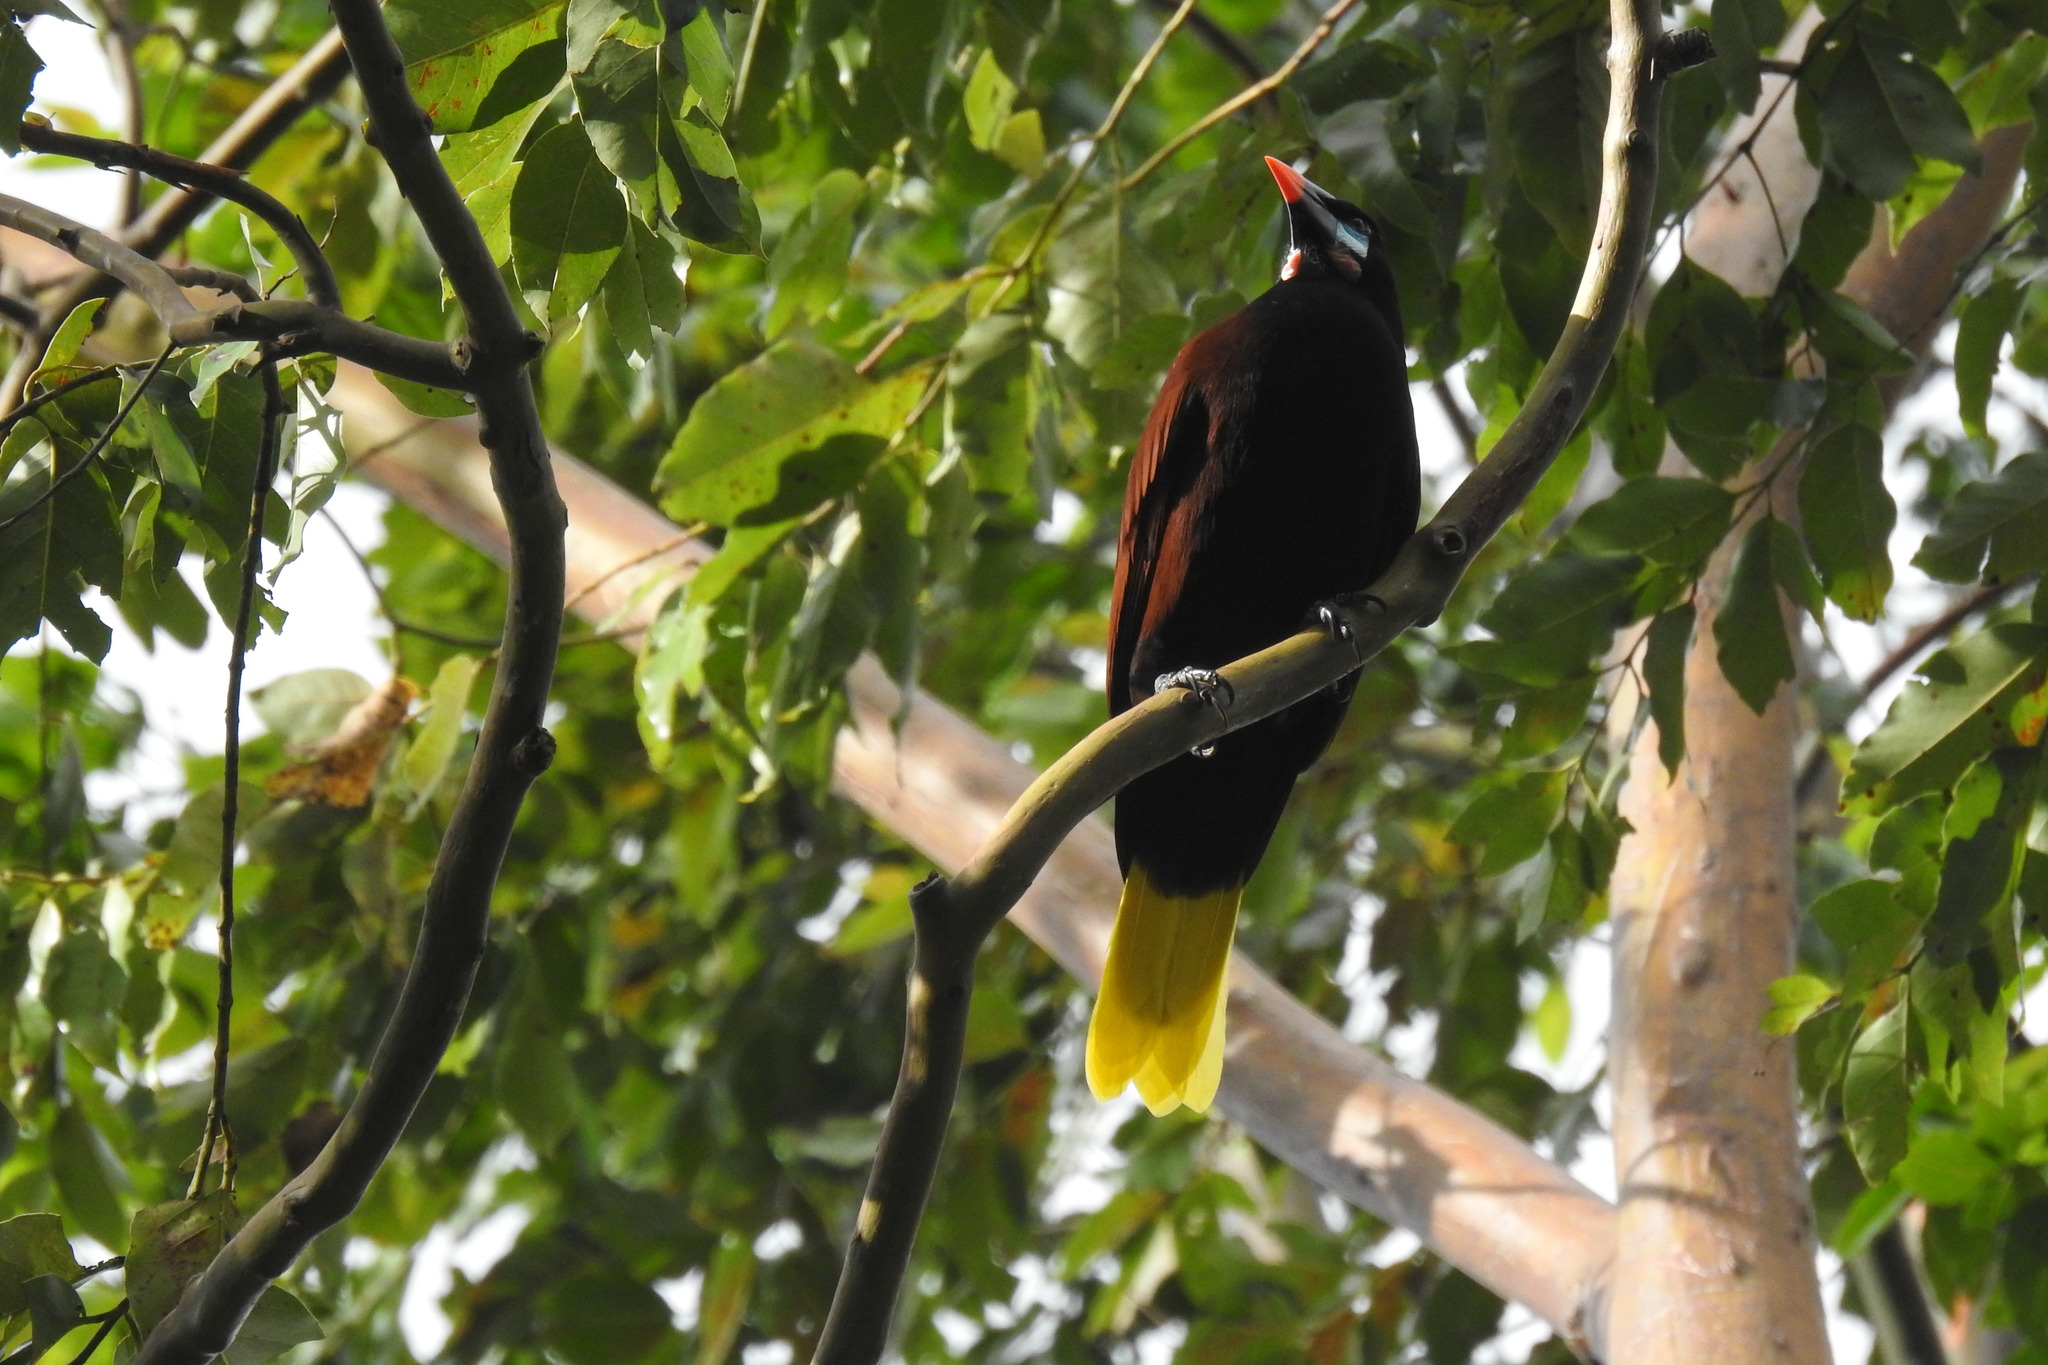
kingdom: Animalia
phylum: Chordata
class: Aves
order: Passeriformes
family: Icteridae
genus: Psarocolius
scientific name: Psarocolius montezuma
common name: Montezuma oropendola
